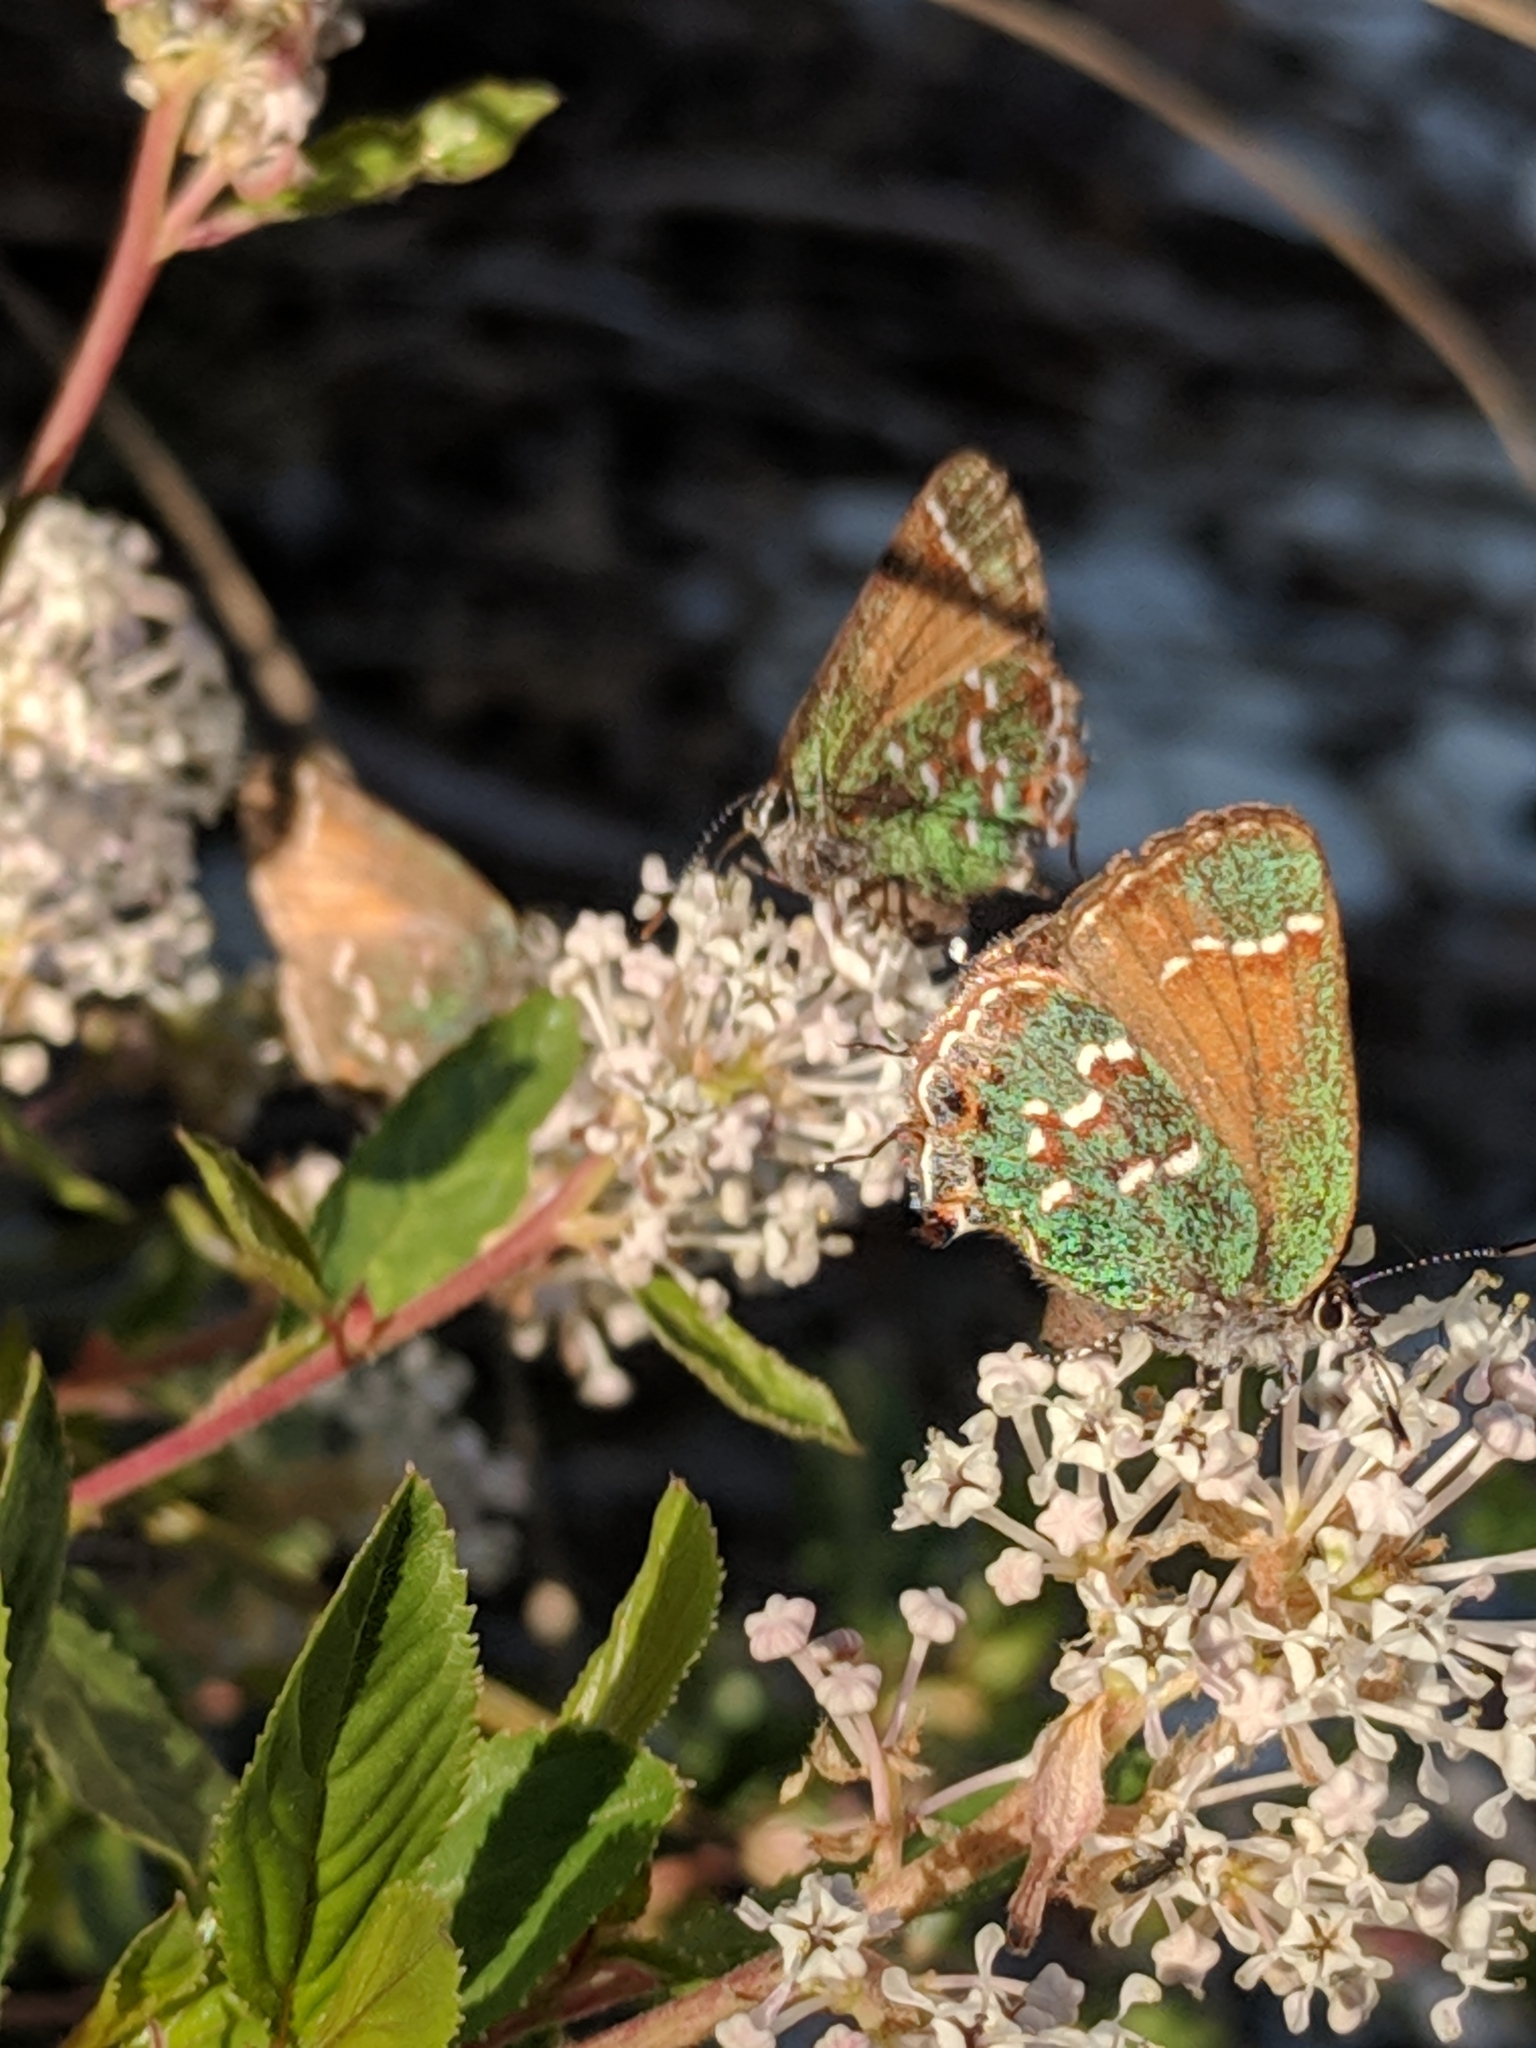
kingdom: Animalia
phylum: Arthropoda
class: Insecta
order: Lepidoptera
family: Lycaenidae
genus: Mitoura
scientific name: Mitoura gryneus
